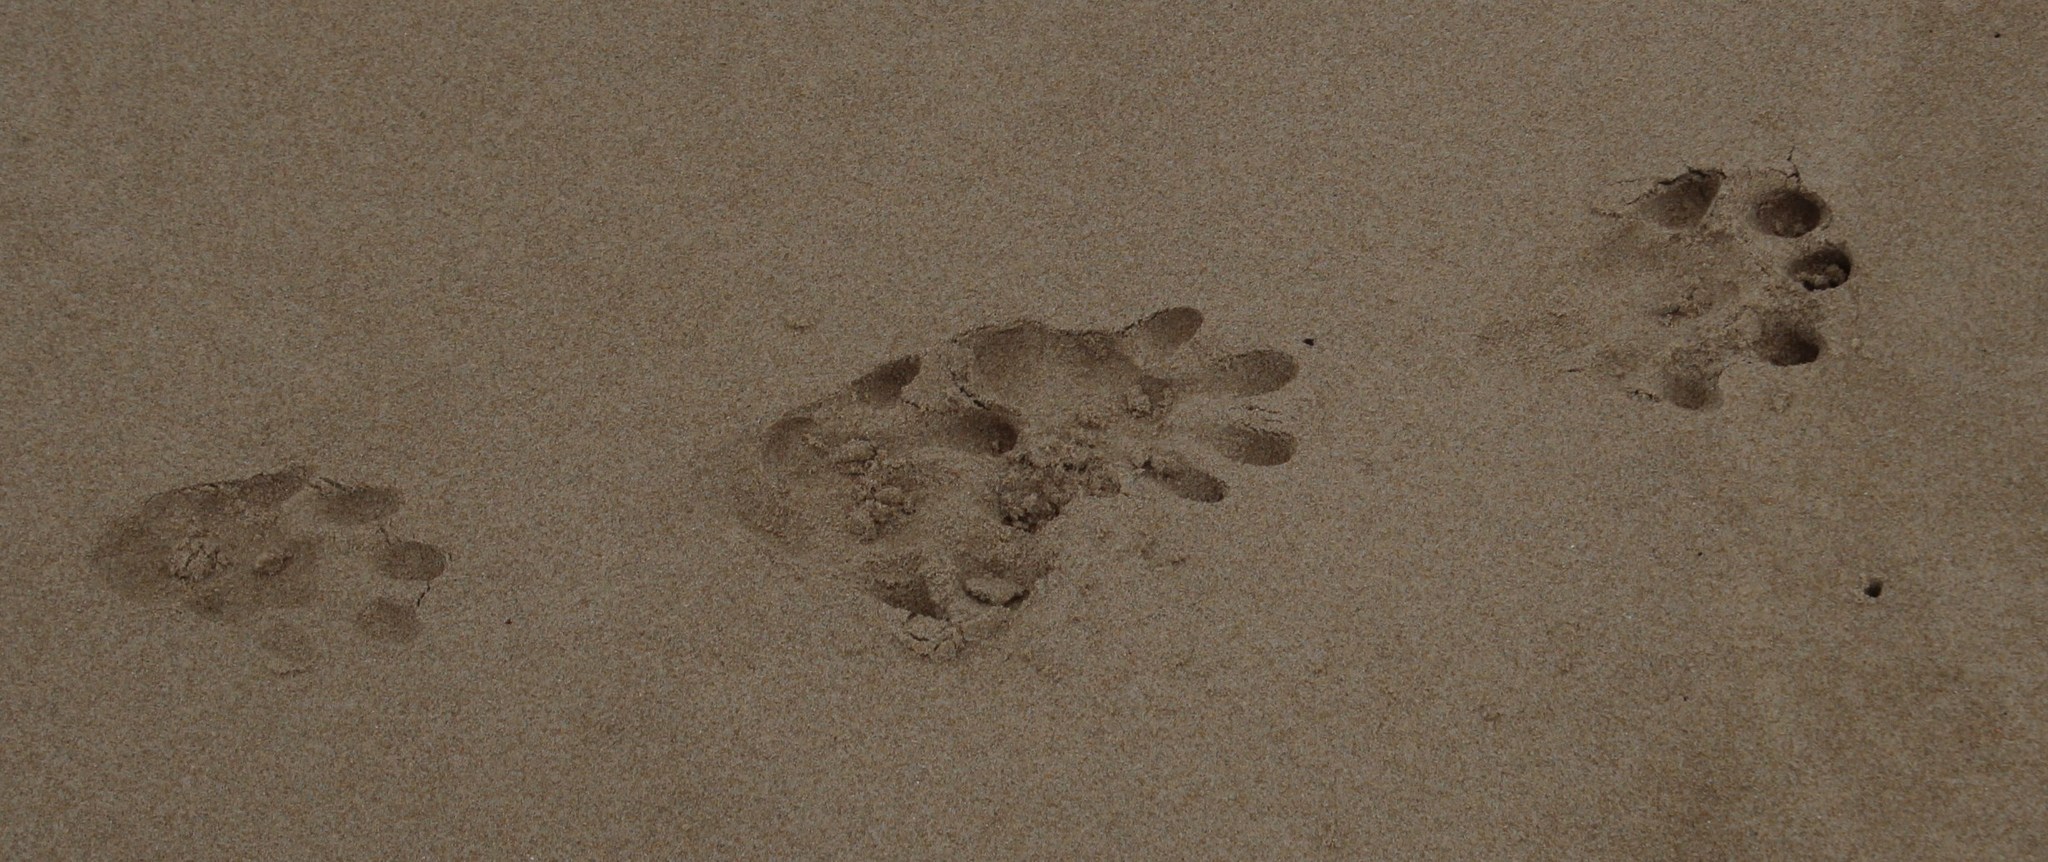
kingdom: Animalia
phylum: Chordata
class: Mammalia
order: Carnivora
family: Mustelidae
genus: Aonyx
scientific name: Aonyx capensis
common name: African clawless otter
